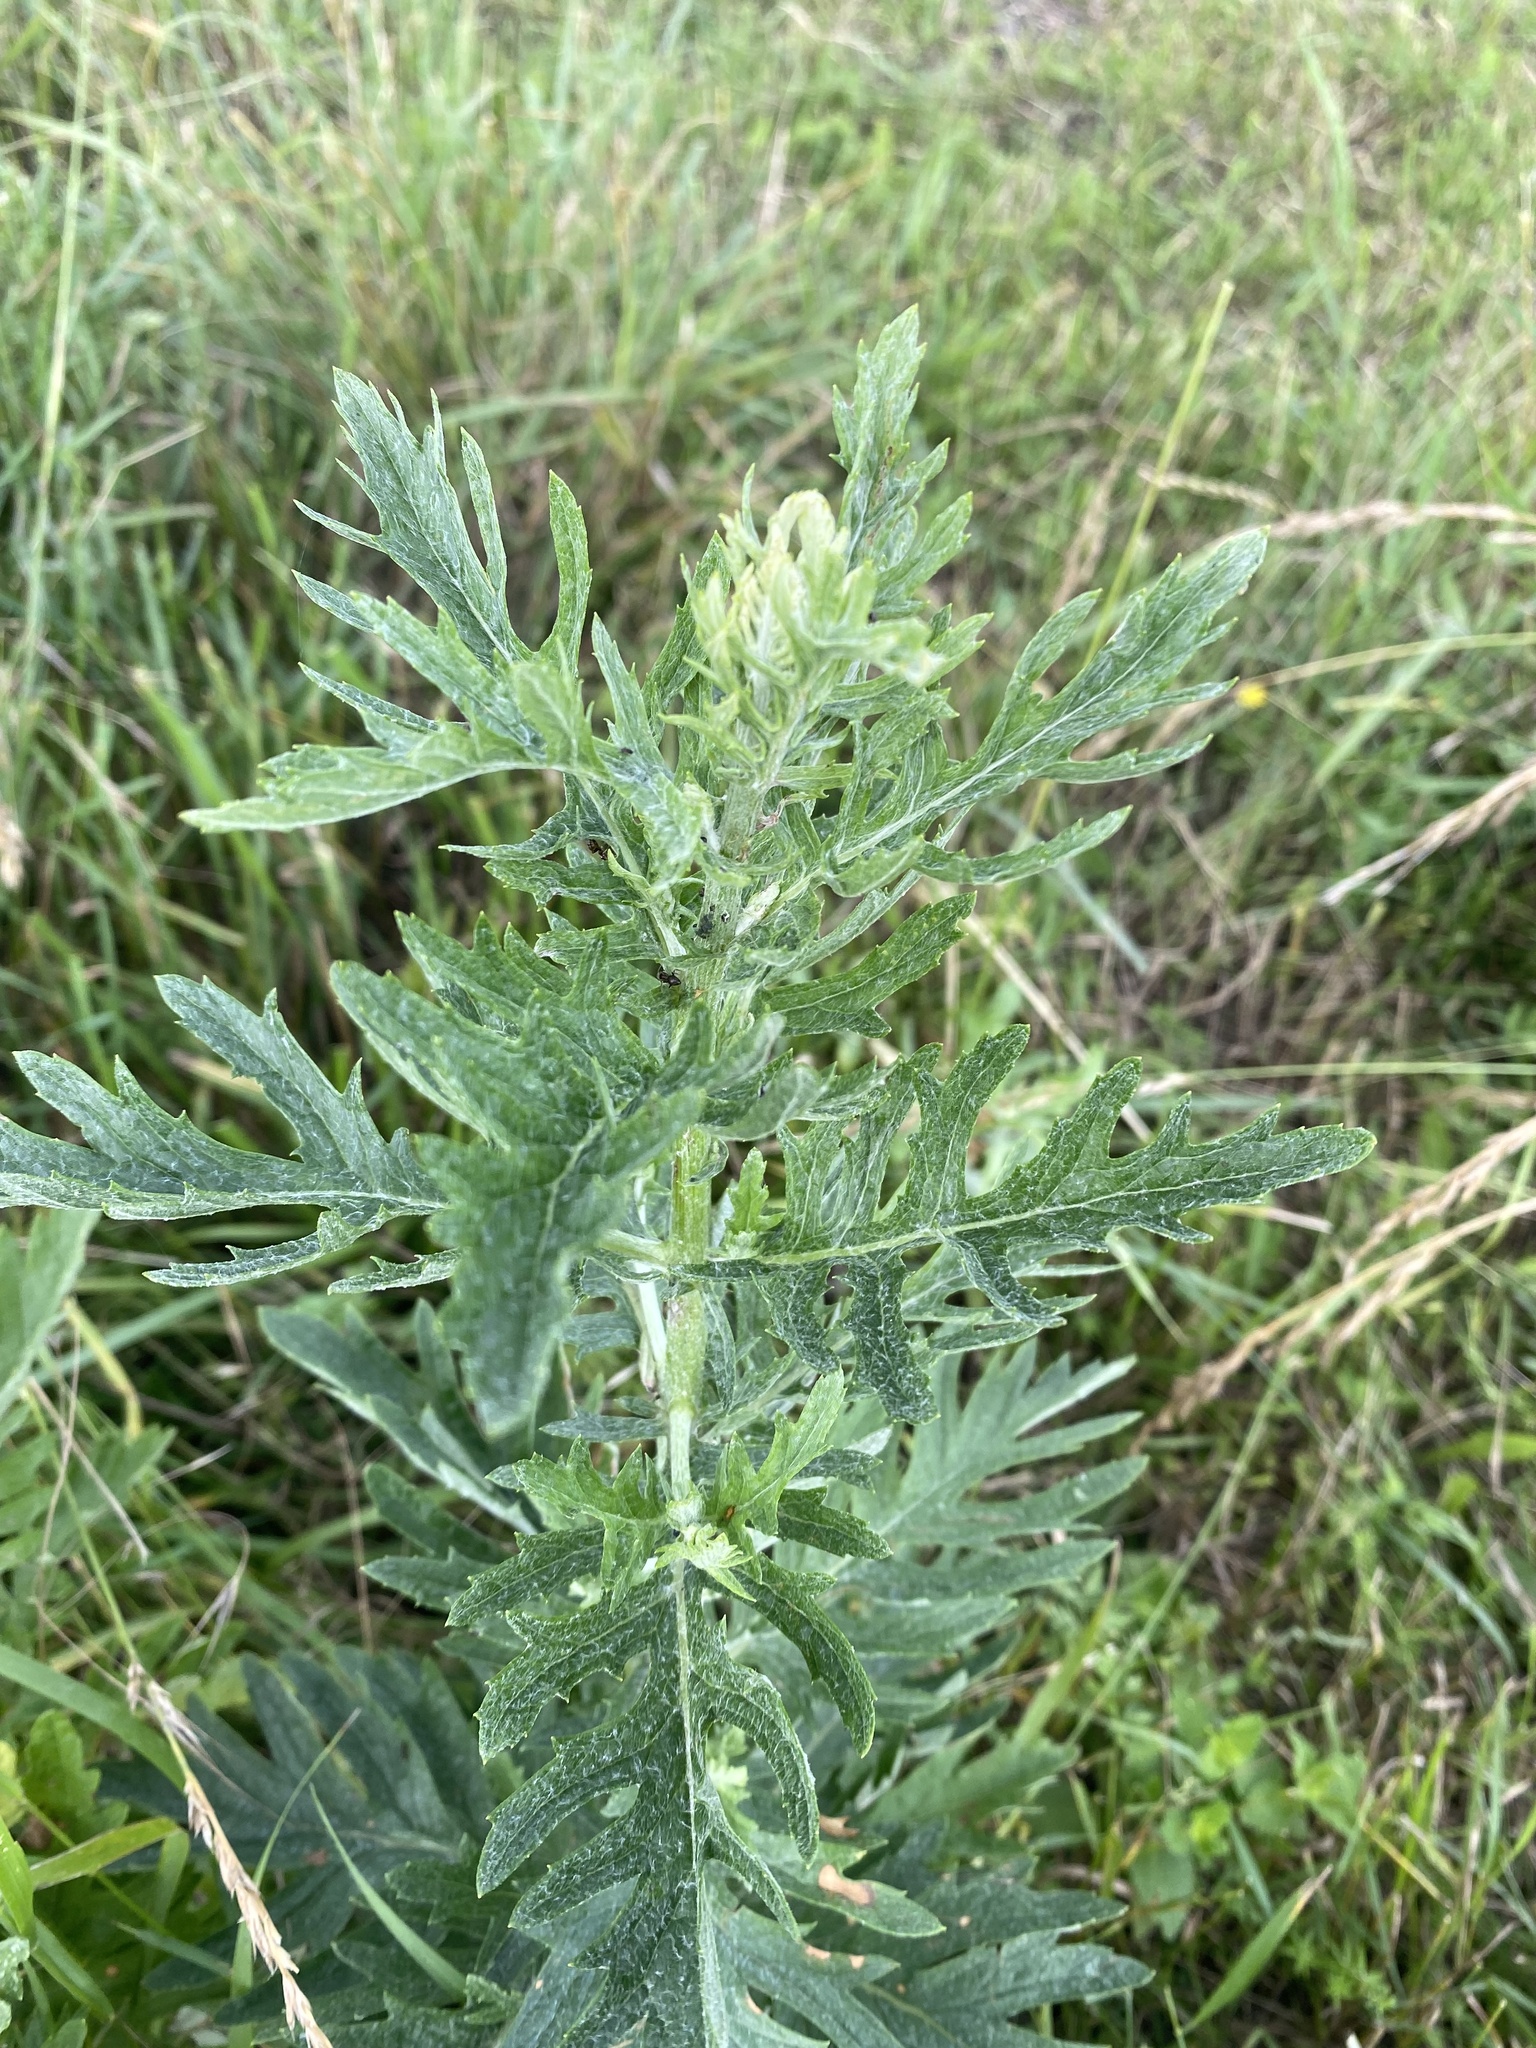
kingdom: Plantae
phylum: Tracheophyta
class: Magnoliopsida
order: Asterales
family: Asteraceae
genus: Jacobaea
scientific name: Jacobaea erucifolia
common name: Hoary ragwort
